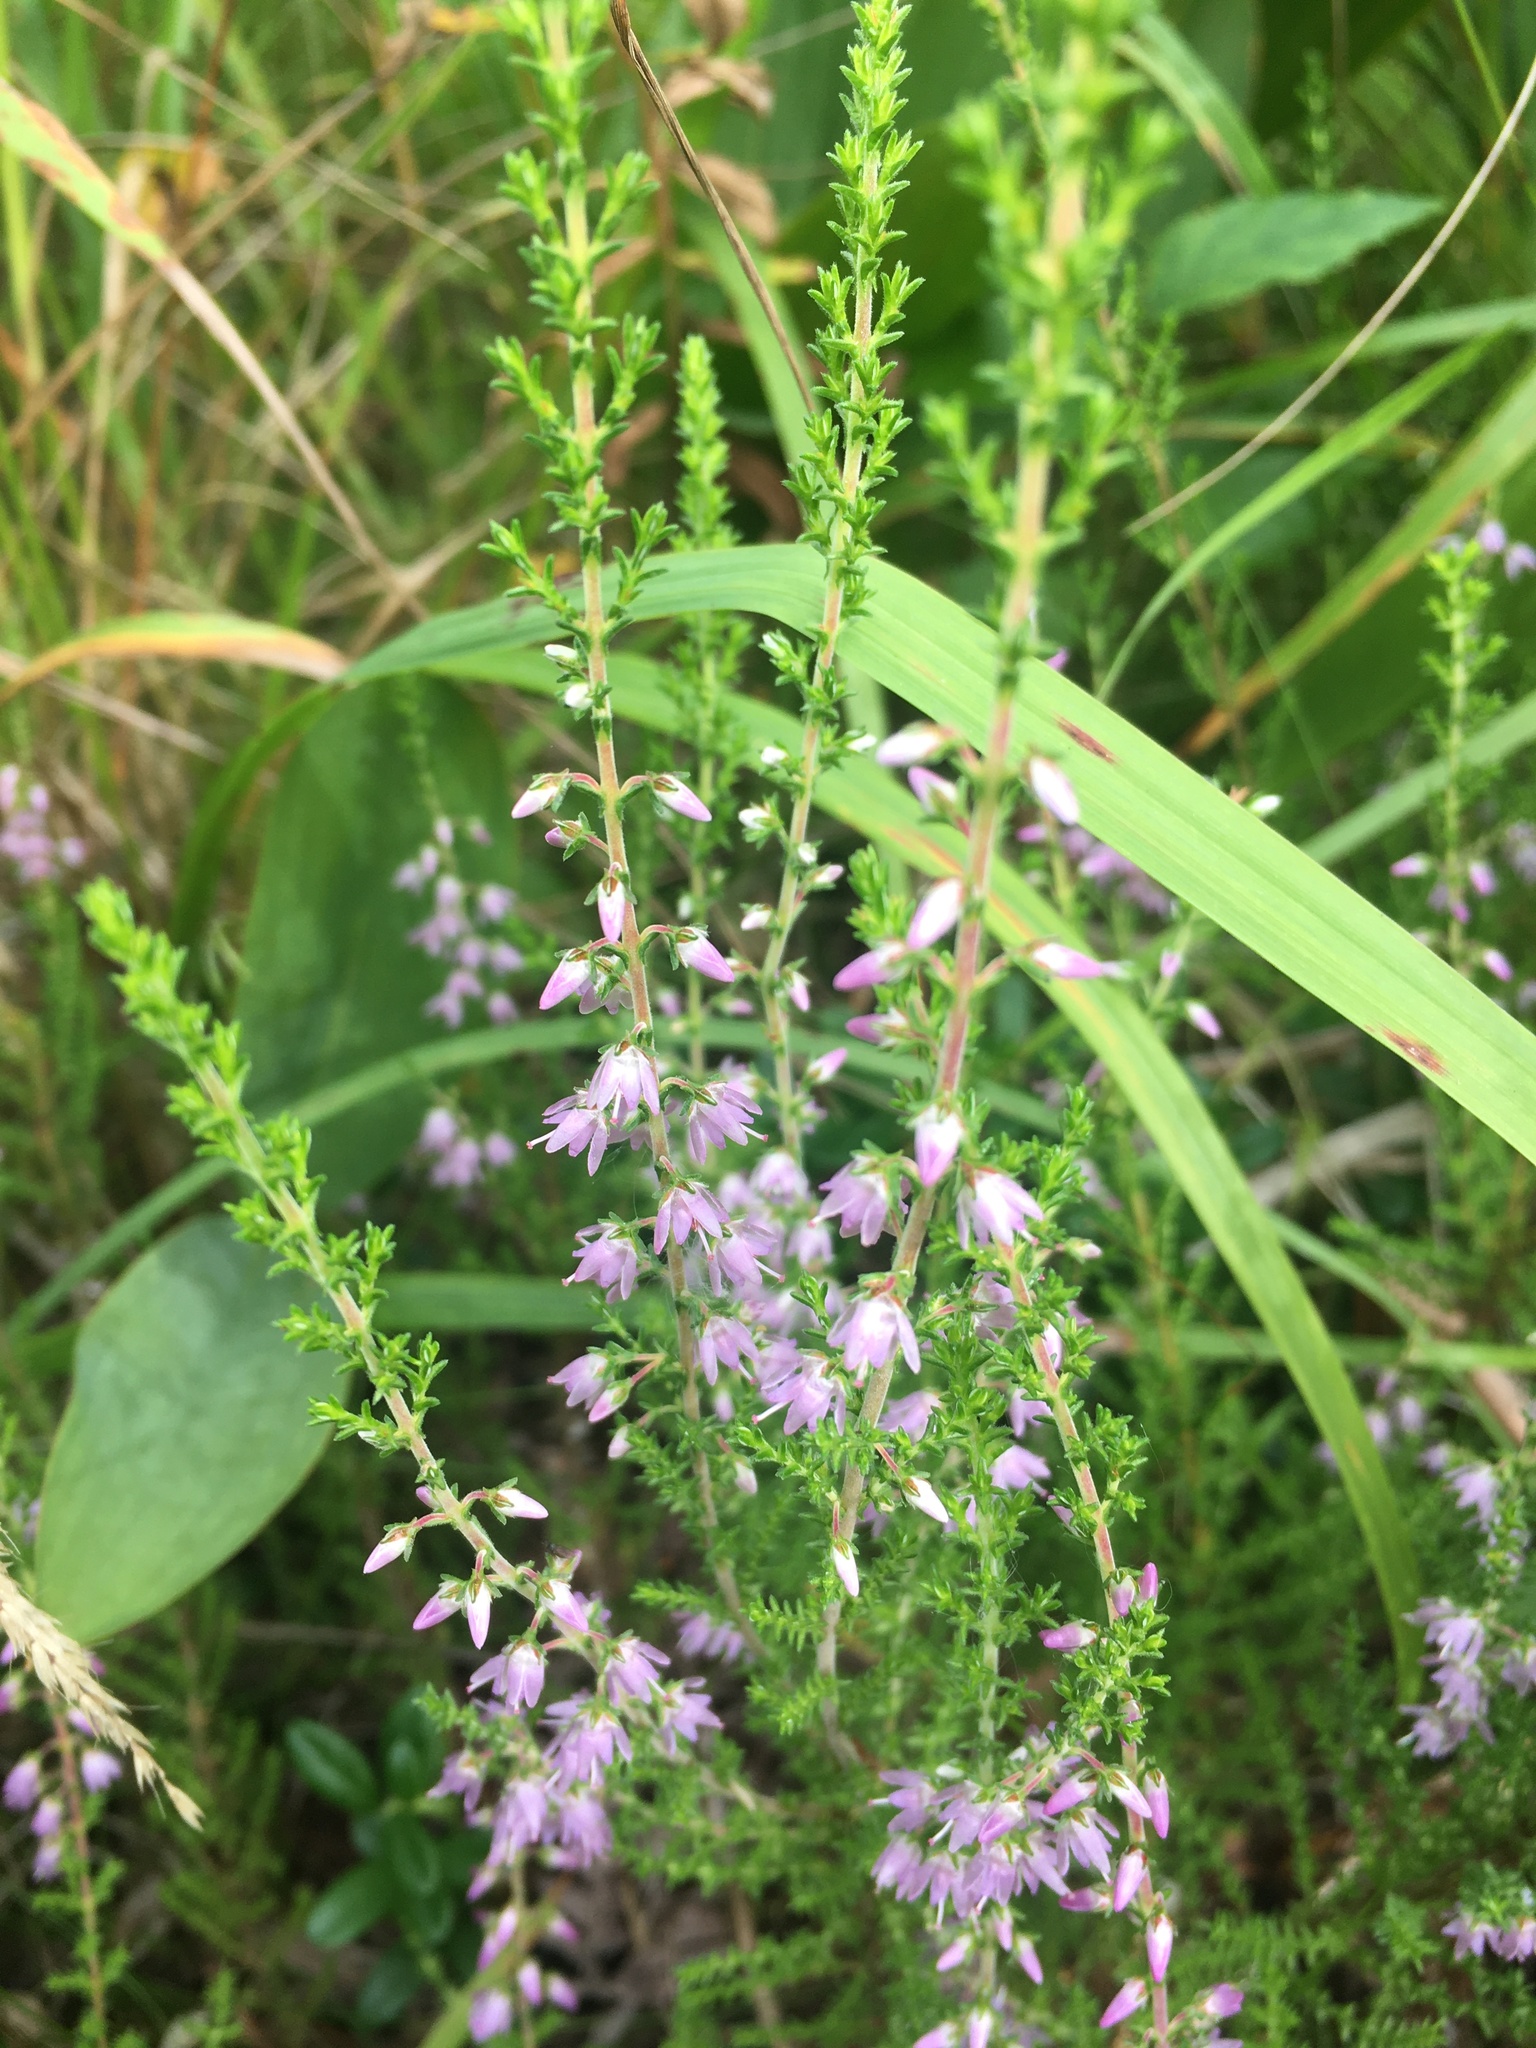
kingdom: Plantae
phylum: Tracheophyta
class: Magnoliopsida
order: Ericales
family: Ericaceae
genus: Calluna
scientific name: Calluna vulgaris
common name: Heather
